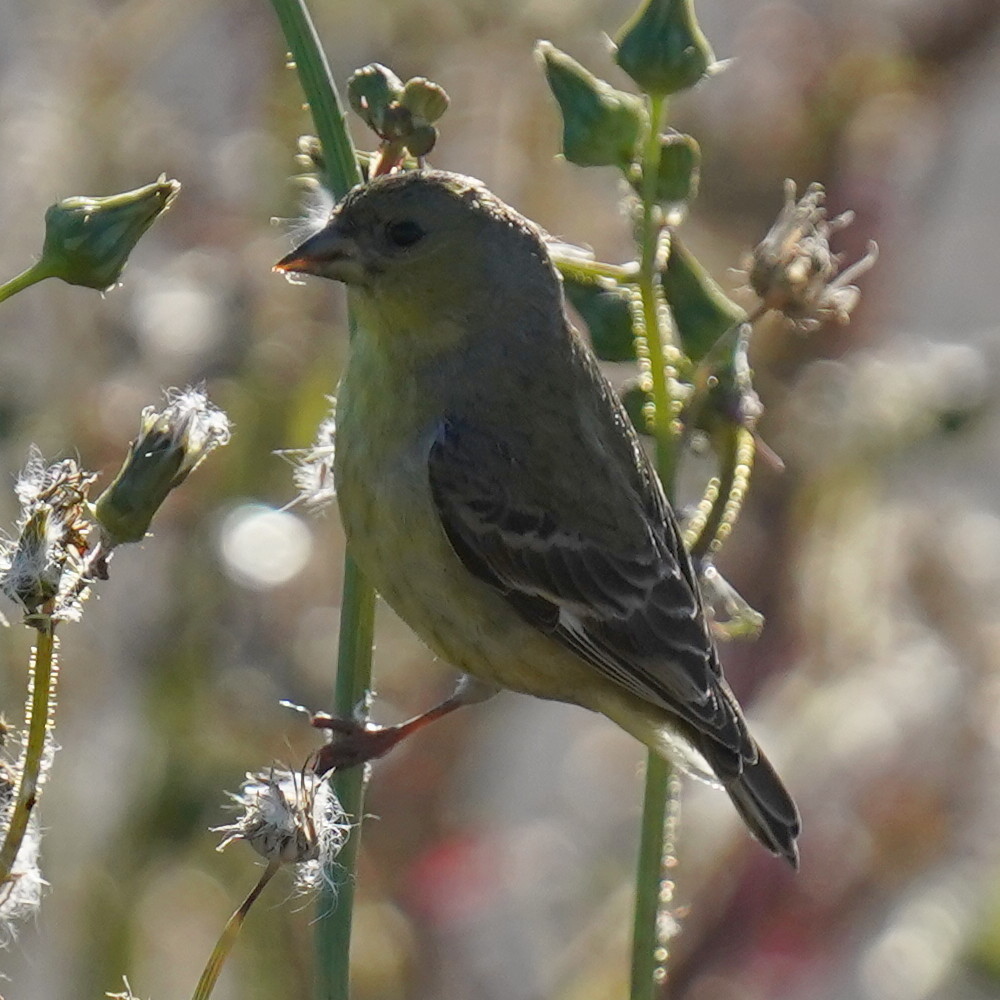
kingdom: Animalia
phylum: Chordata
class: Aves
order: Passeriformes
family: Fringillidae
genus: Spinus
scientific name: Spinus psaltria
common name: Lesser goldfinch
